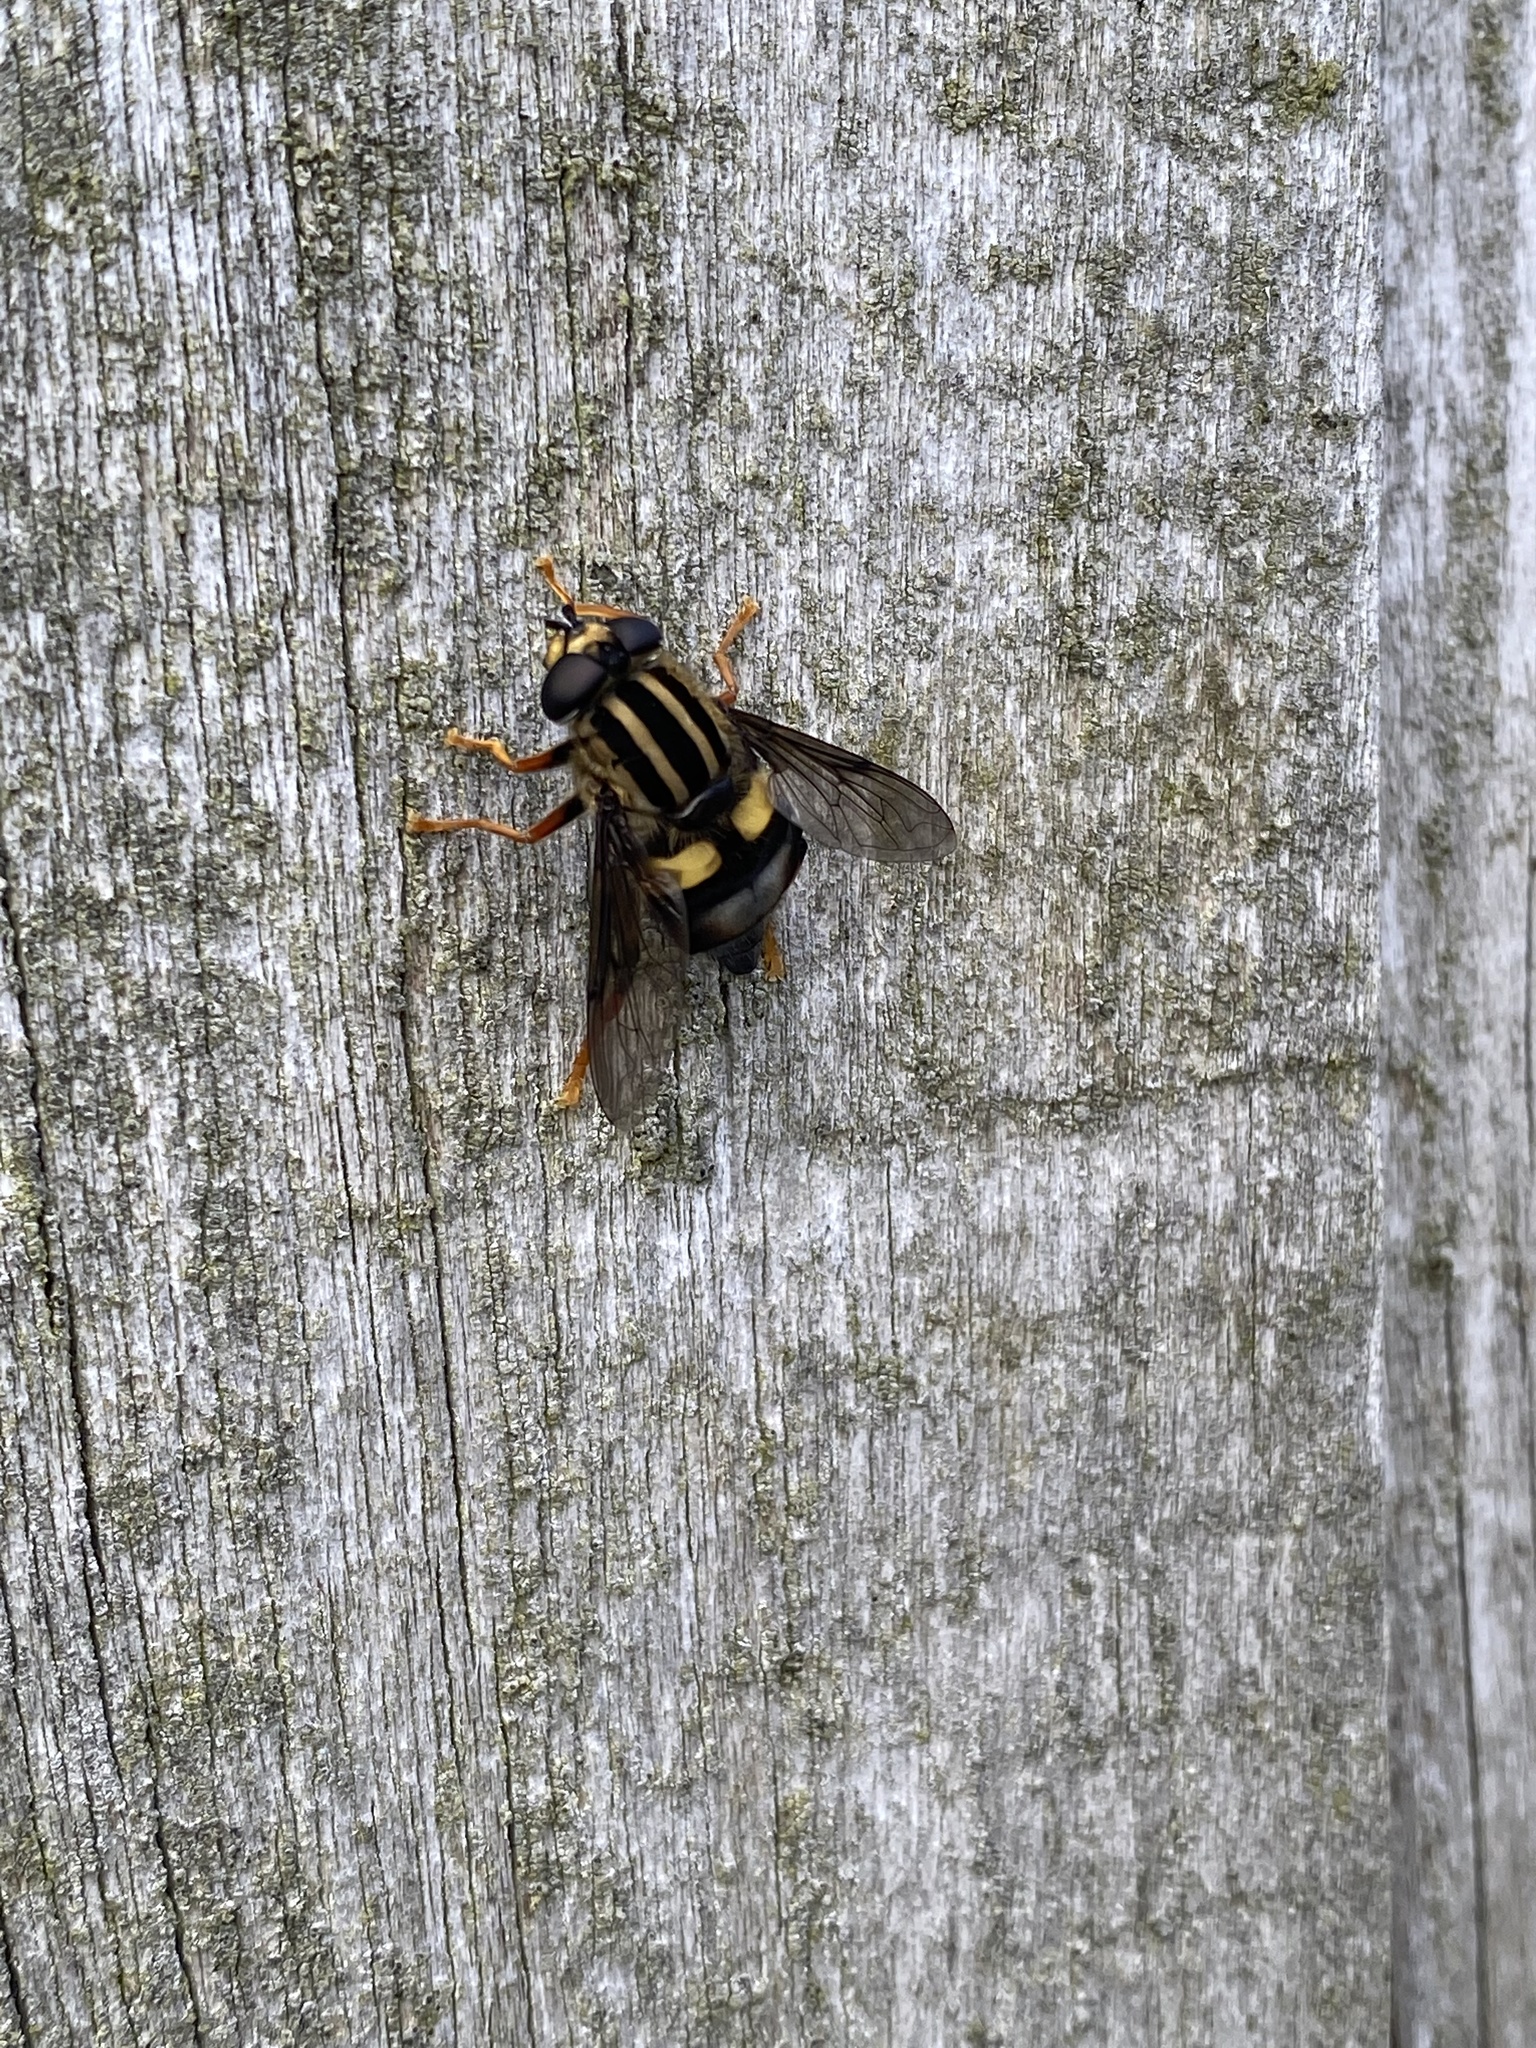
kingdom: Animalia
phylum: Arthropoda
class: Insecta
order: Diptera
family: Syrphidae
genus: Helophilus
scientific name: Helophilus seelandicus
